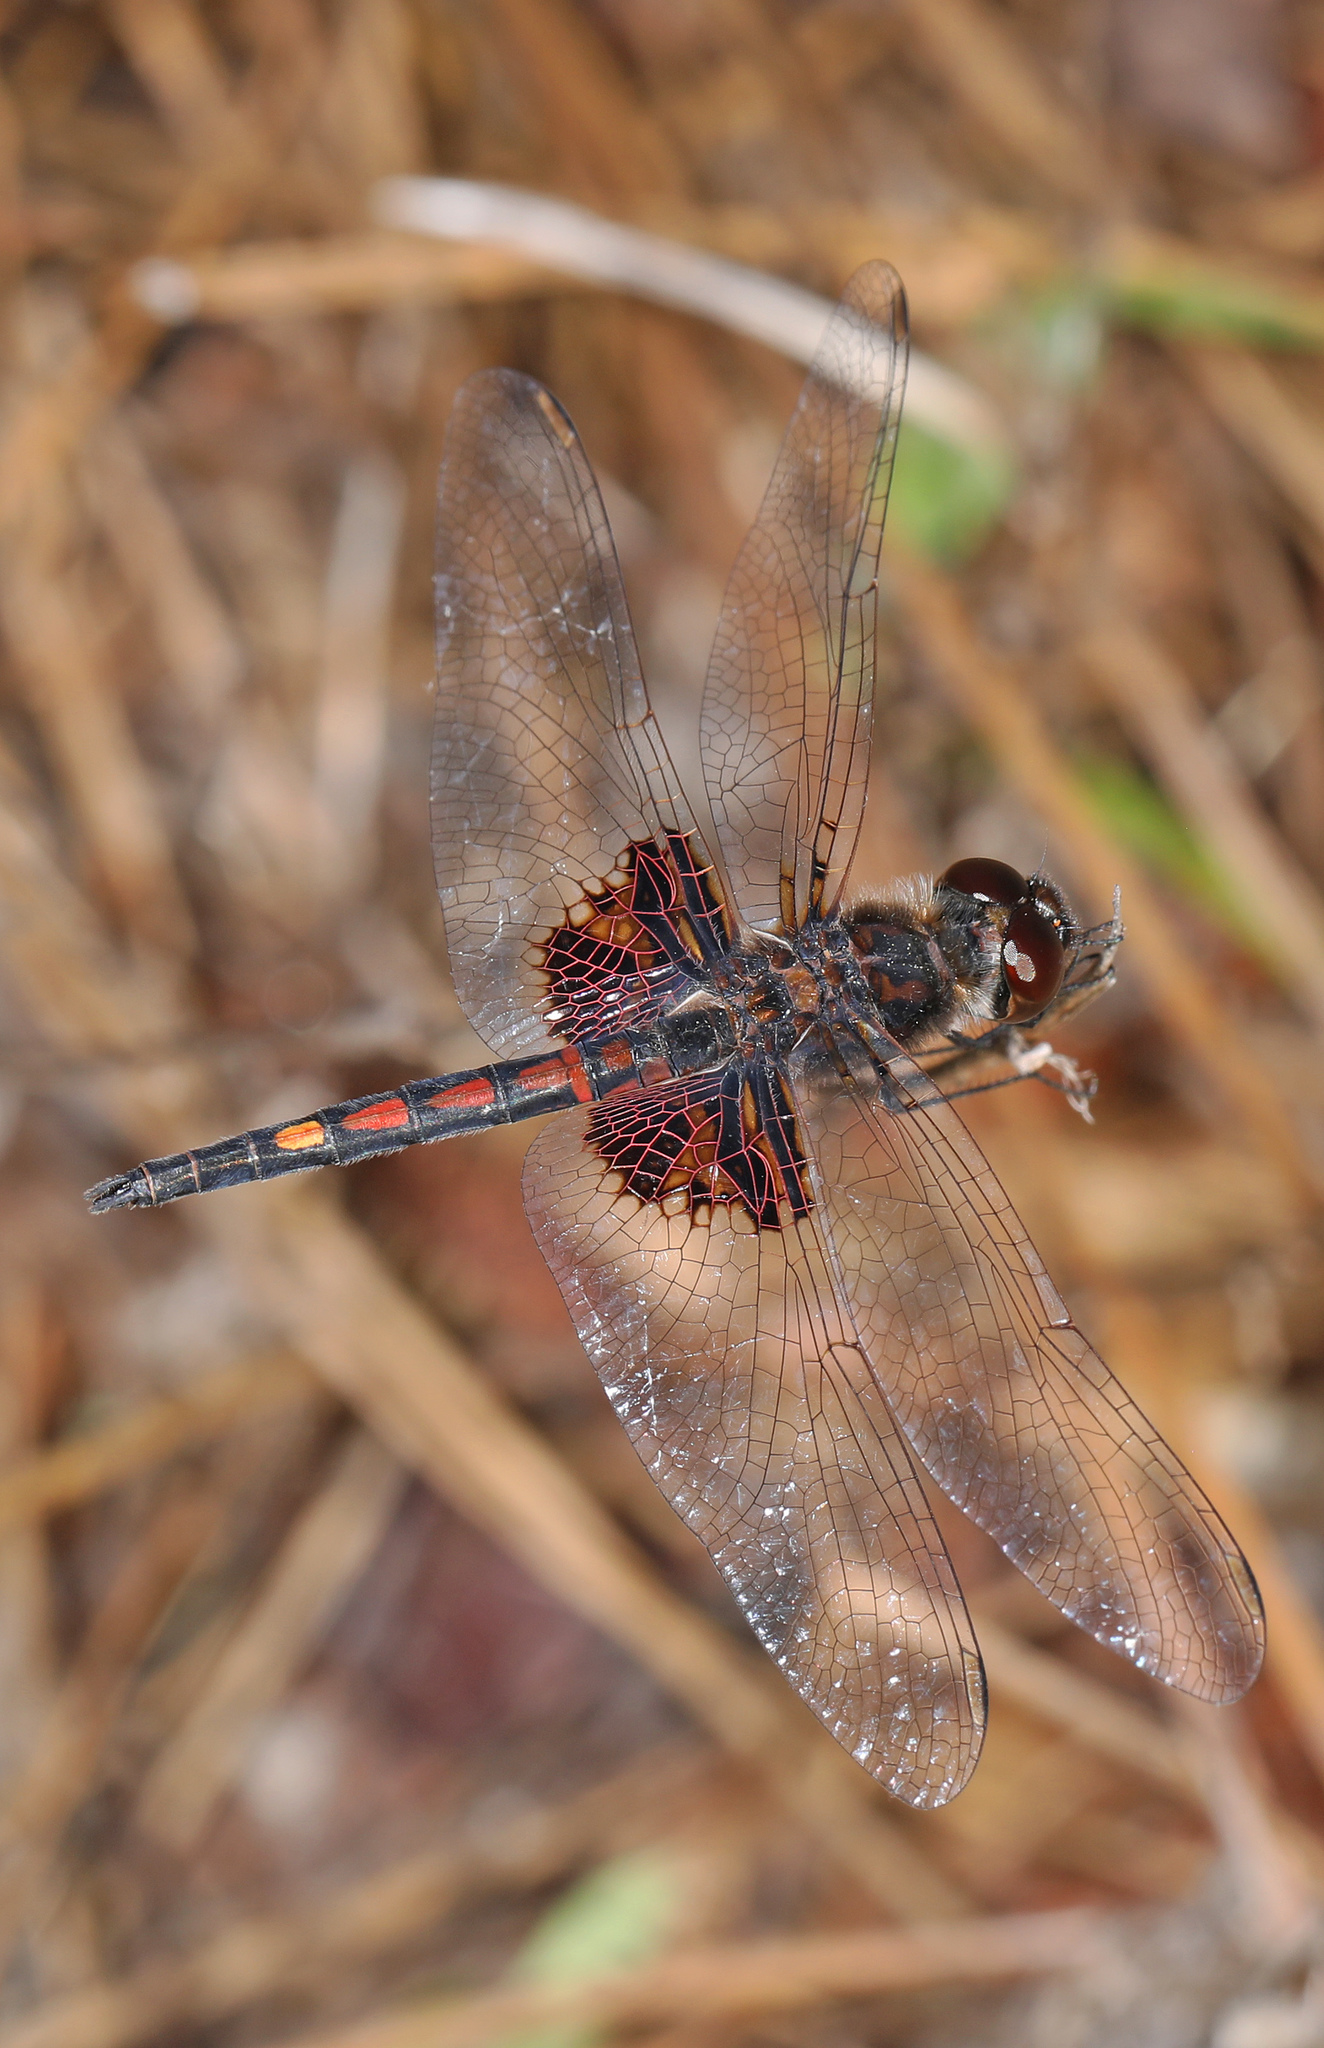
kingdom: Animalia
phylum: Arthropoda
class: Insecta
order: Odonata
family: Libellulidae
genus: Celithemis
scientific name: Celithemis ornata
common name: Ornate pennant
